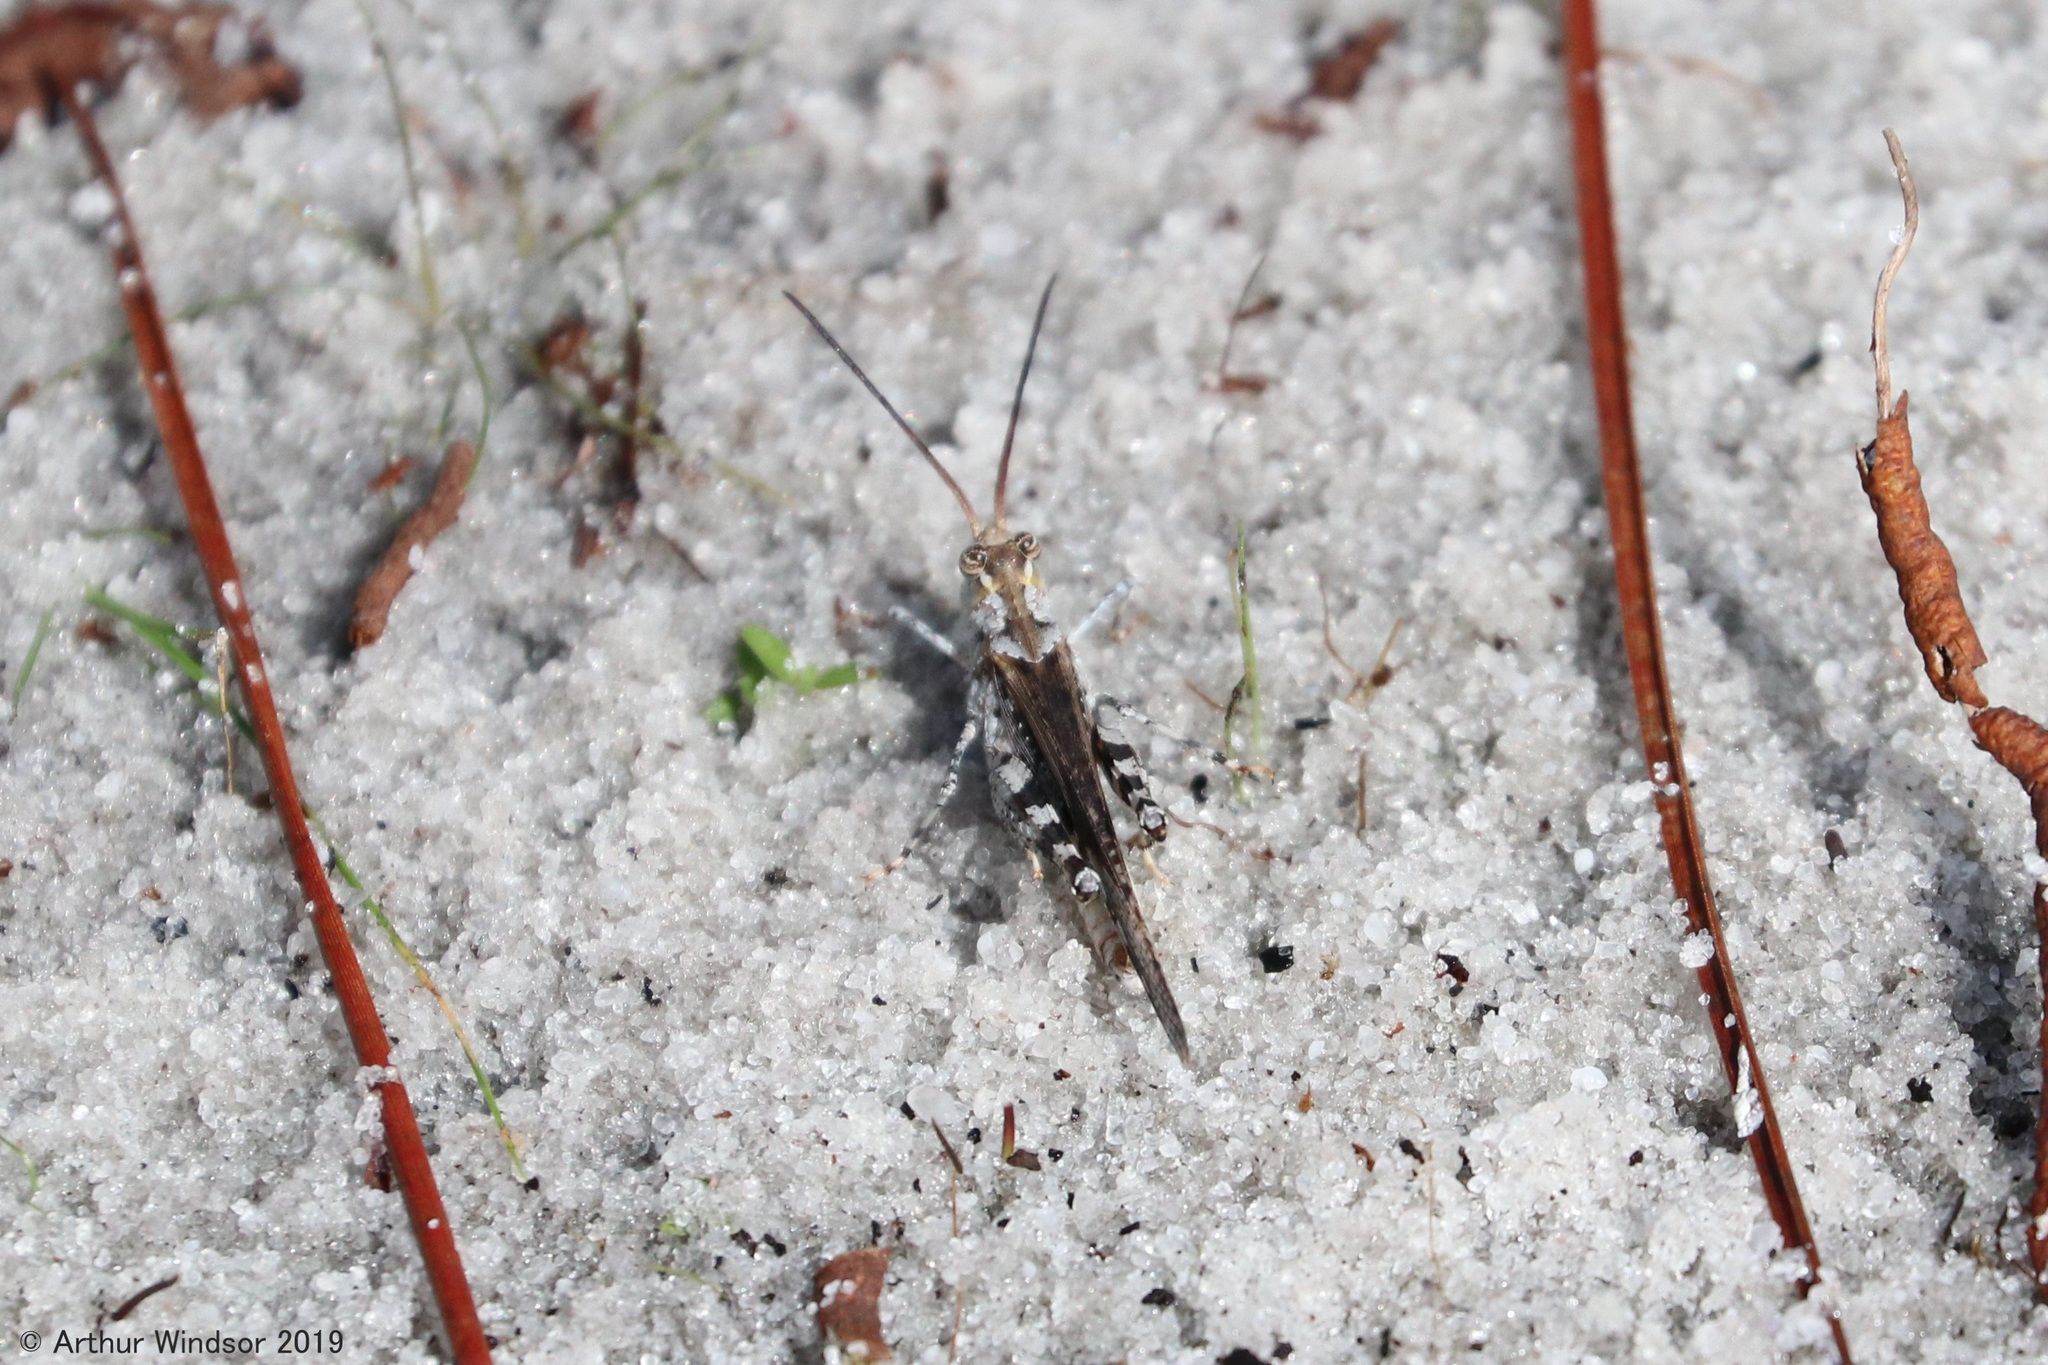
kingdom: Animalia
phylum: Arthropoda
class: Insecta
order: Orthoptera
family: Acrididae
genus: Psinidia
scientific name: Psinidia fenestralis
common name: Long-horned locust
